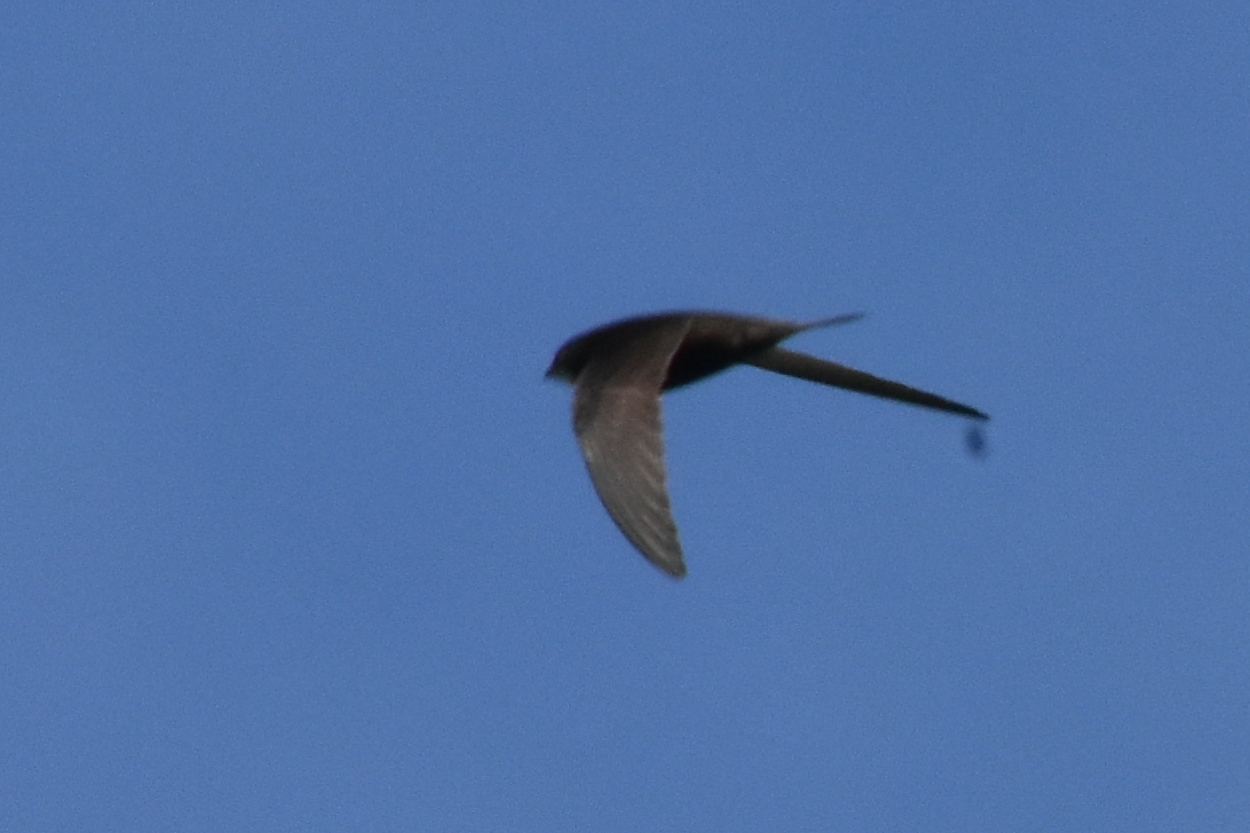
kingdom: Animalia
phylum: Chordata
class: Aves
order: Apodiformes
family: Apodidae
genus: Apus
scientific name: Apus apus
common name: Common swift
